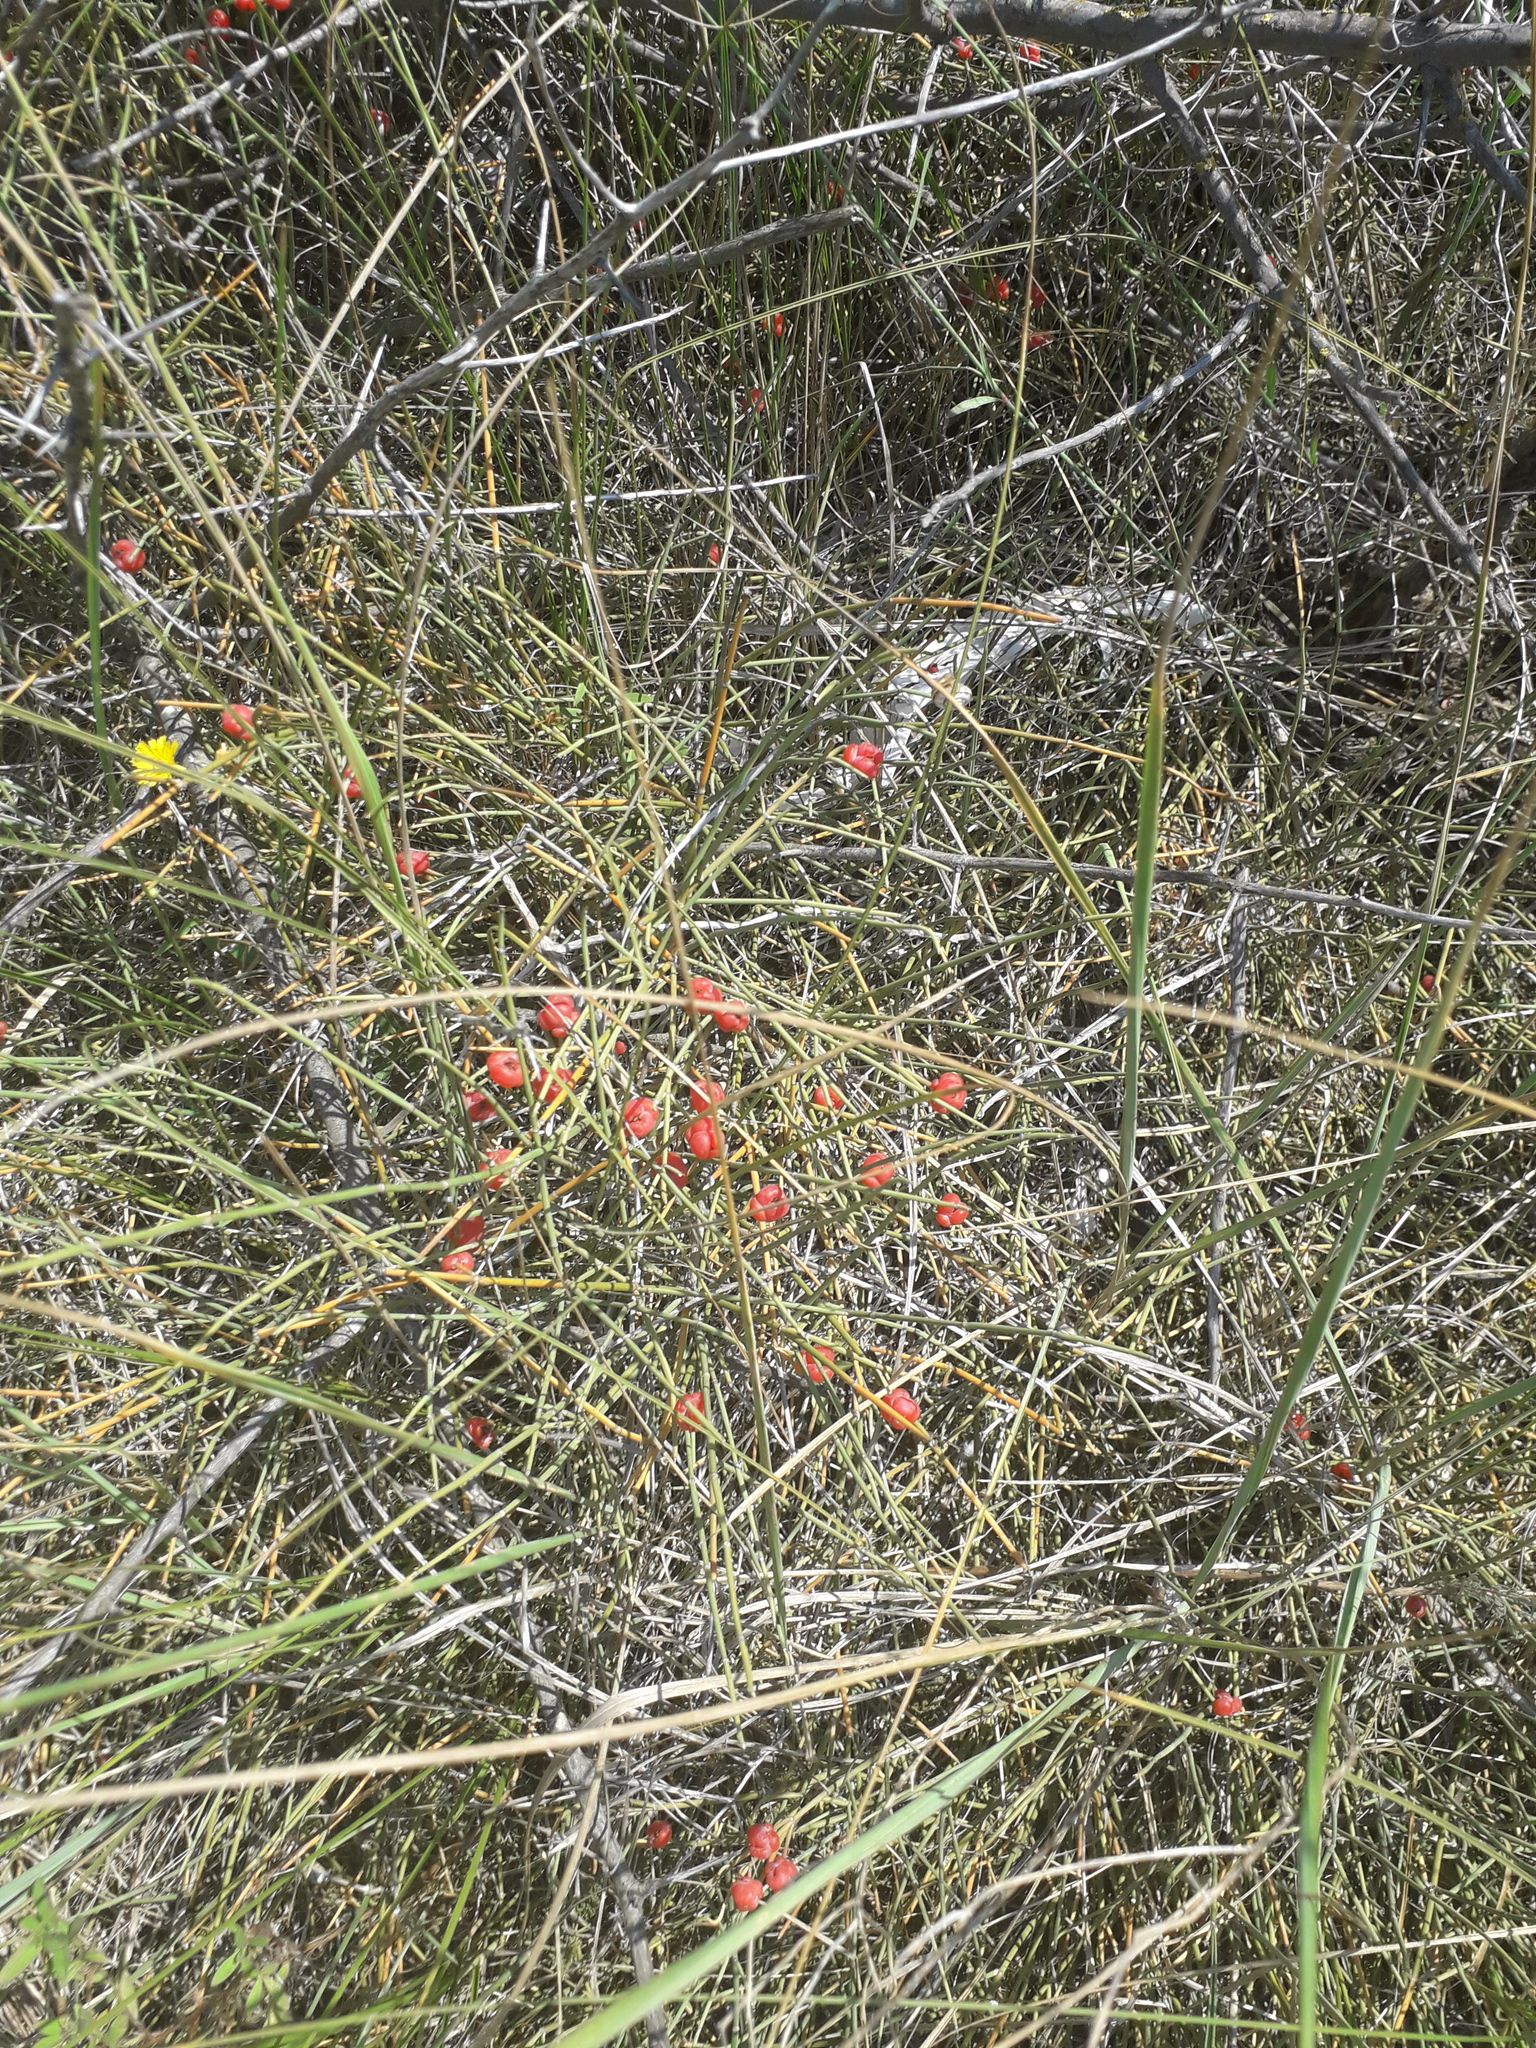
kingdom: Plantae
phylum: Tracheophyta
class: Gnetopsida
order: Ephedrales
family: Ephedraceae
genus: Ephedra
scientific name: Ephedra distachya
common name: Sea grape
